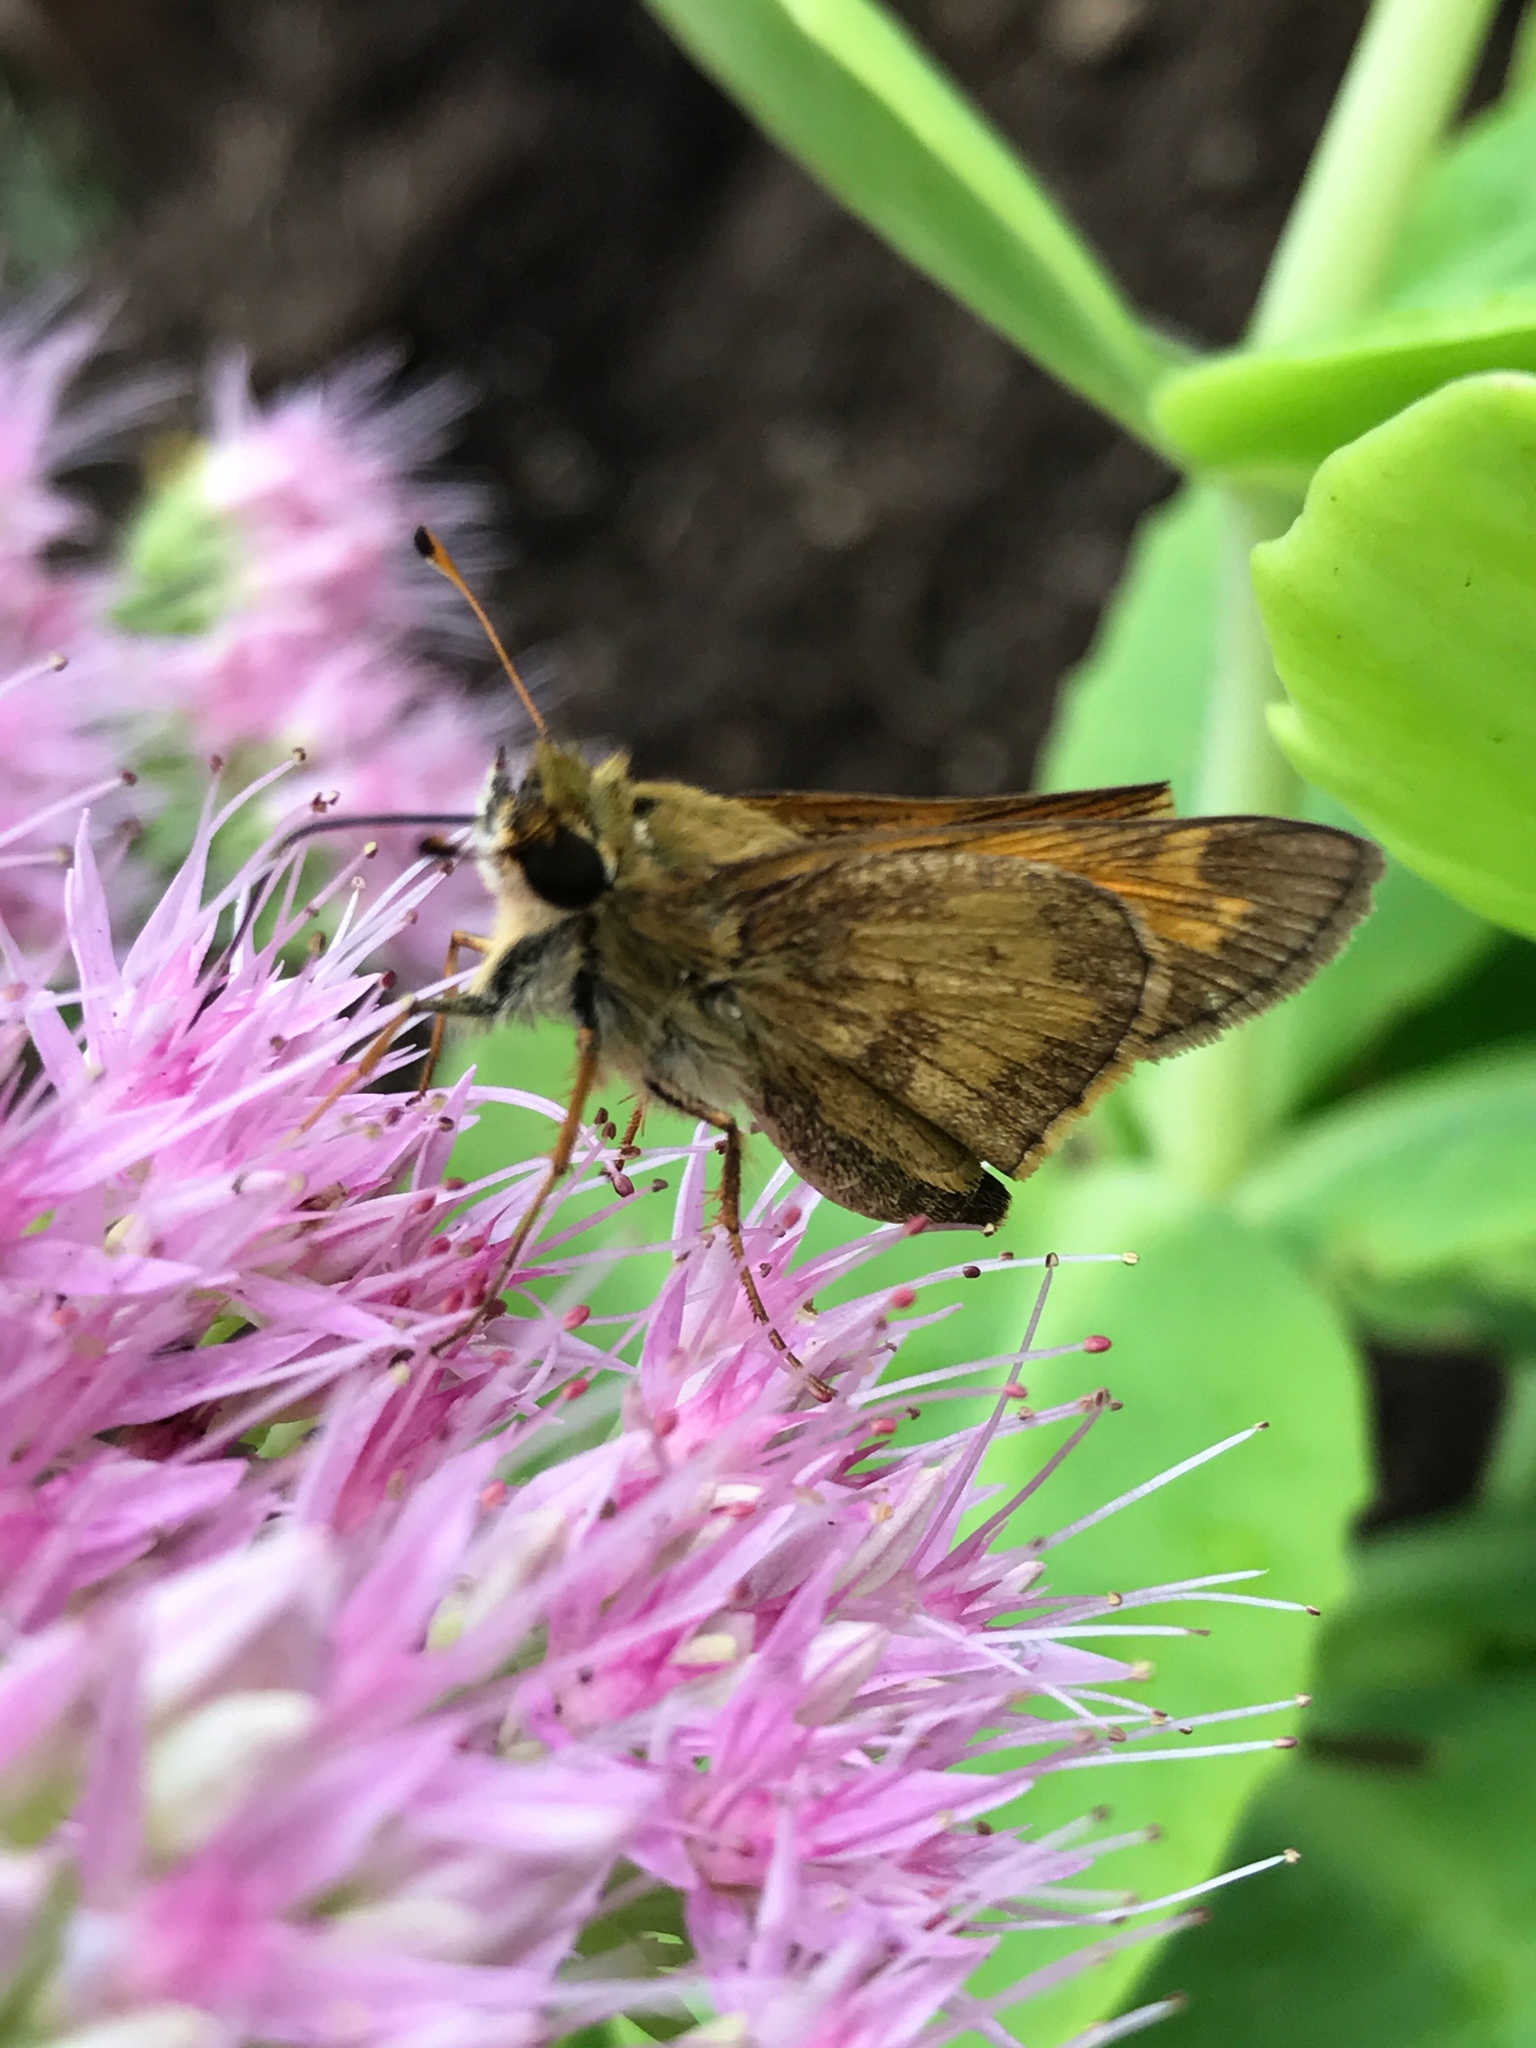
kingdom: Animalia
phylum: Arthropoda
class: Insecta
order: Lepidoptera
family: Hesperiidae
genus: Lon
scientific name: Lon zabulon
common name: Zabulon skipper
